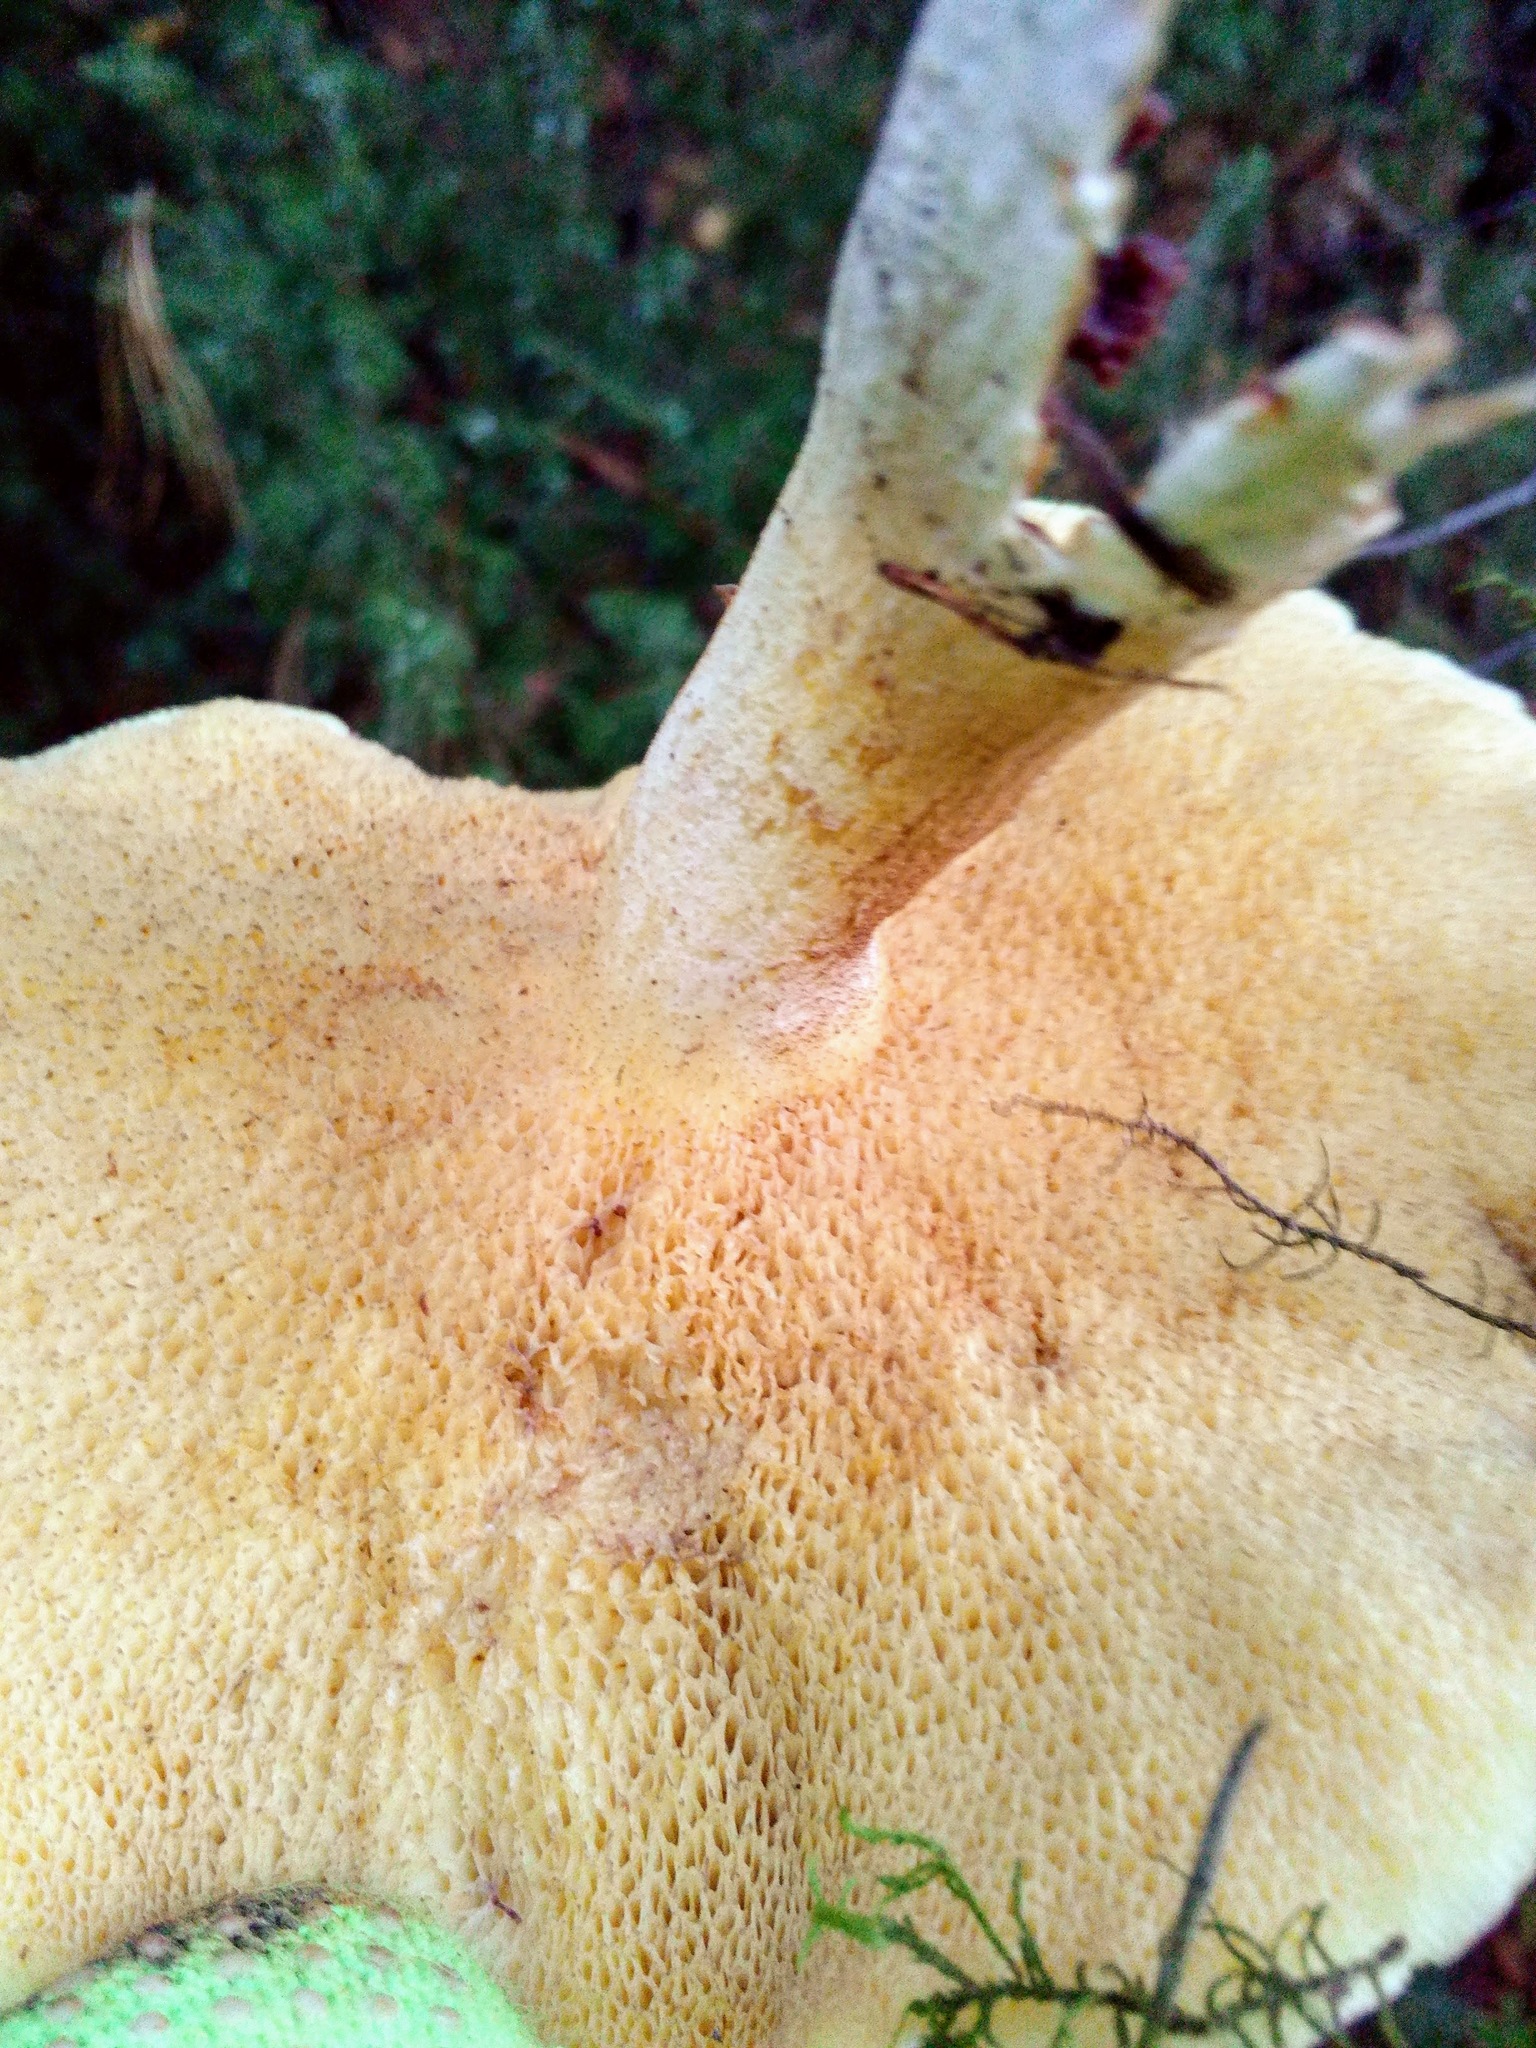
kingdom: Fungi
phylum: Basidiomycota
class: Agaricomycetes
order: Boletales
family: Suillaceae
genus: Suillus
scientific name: Suillus placidus
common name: Slippery white bolete
